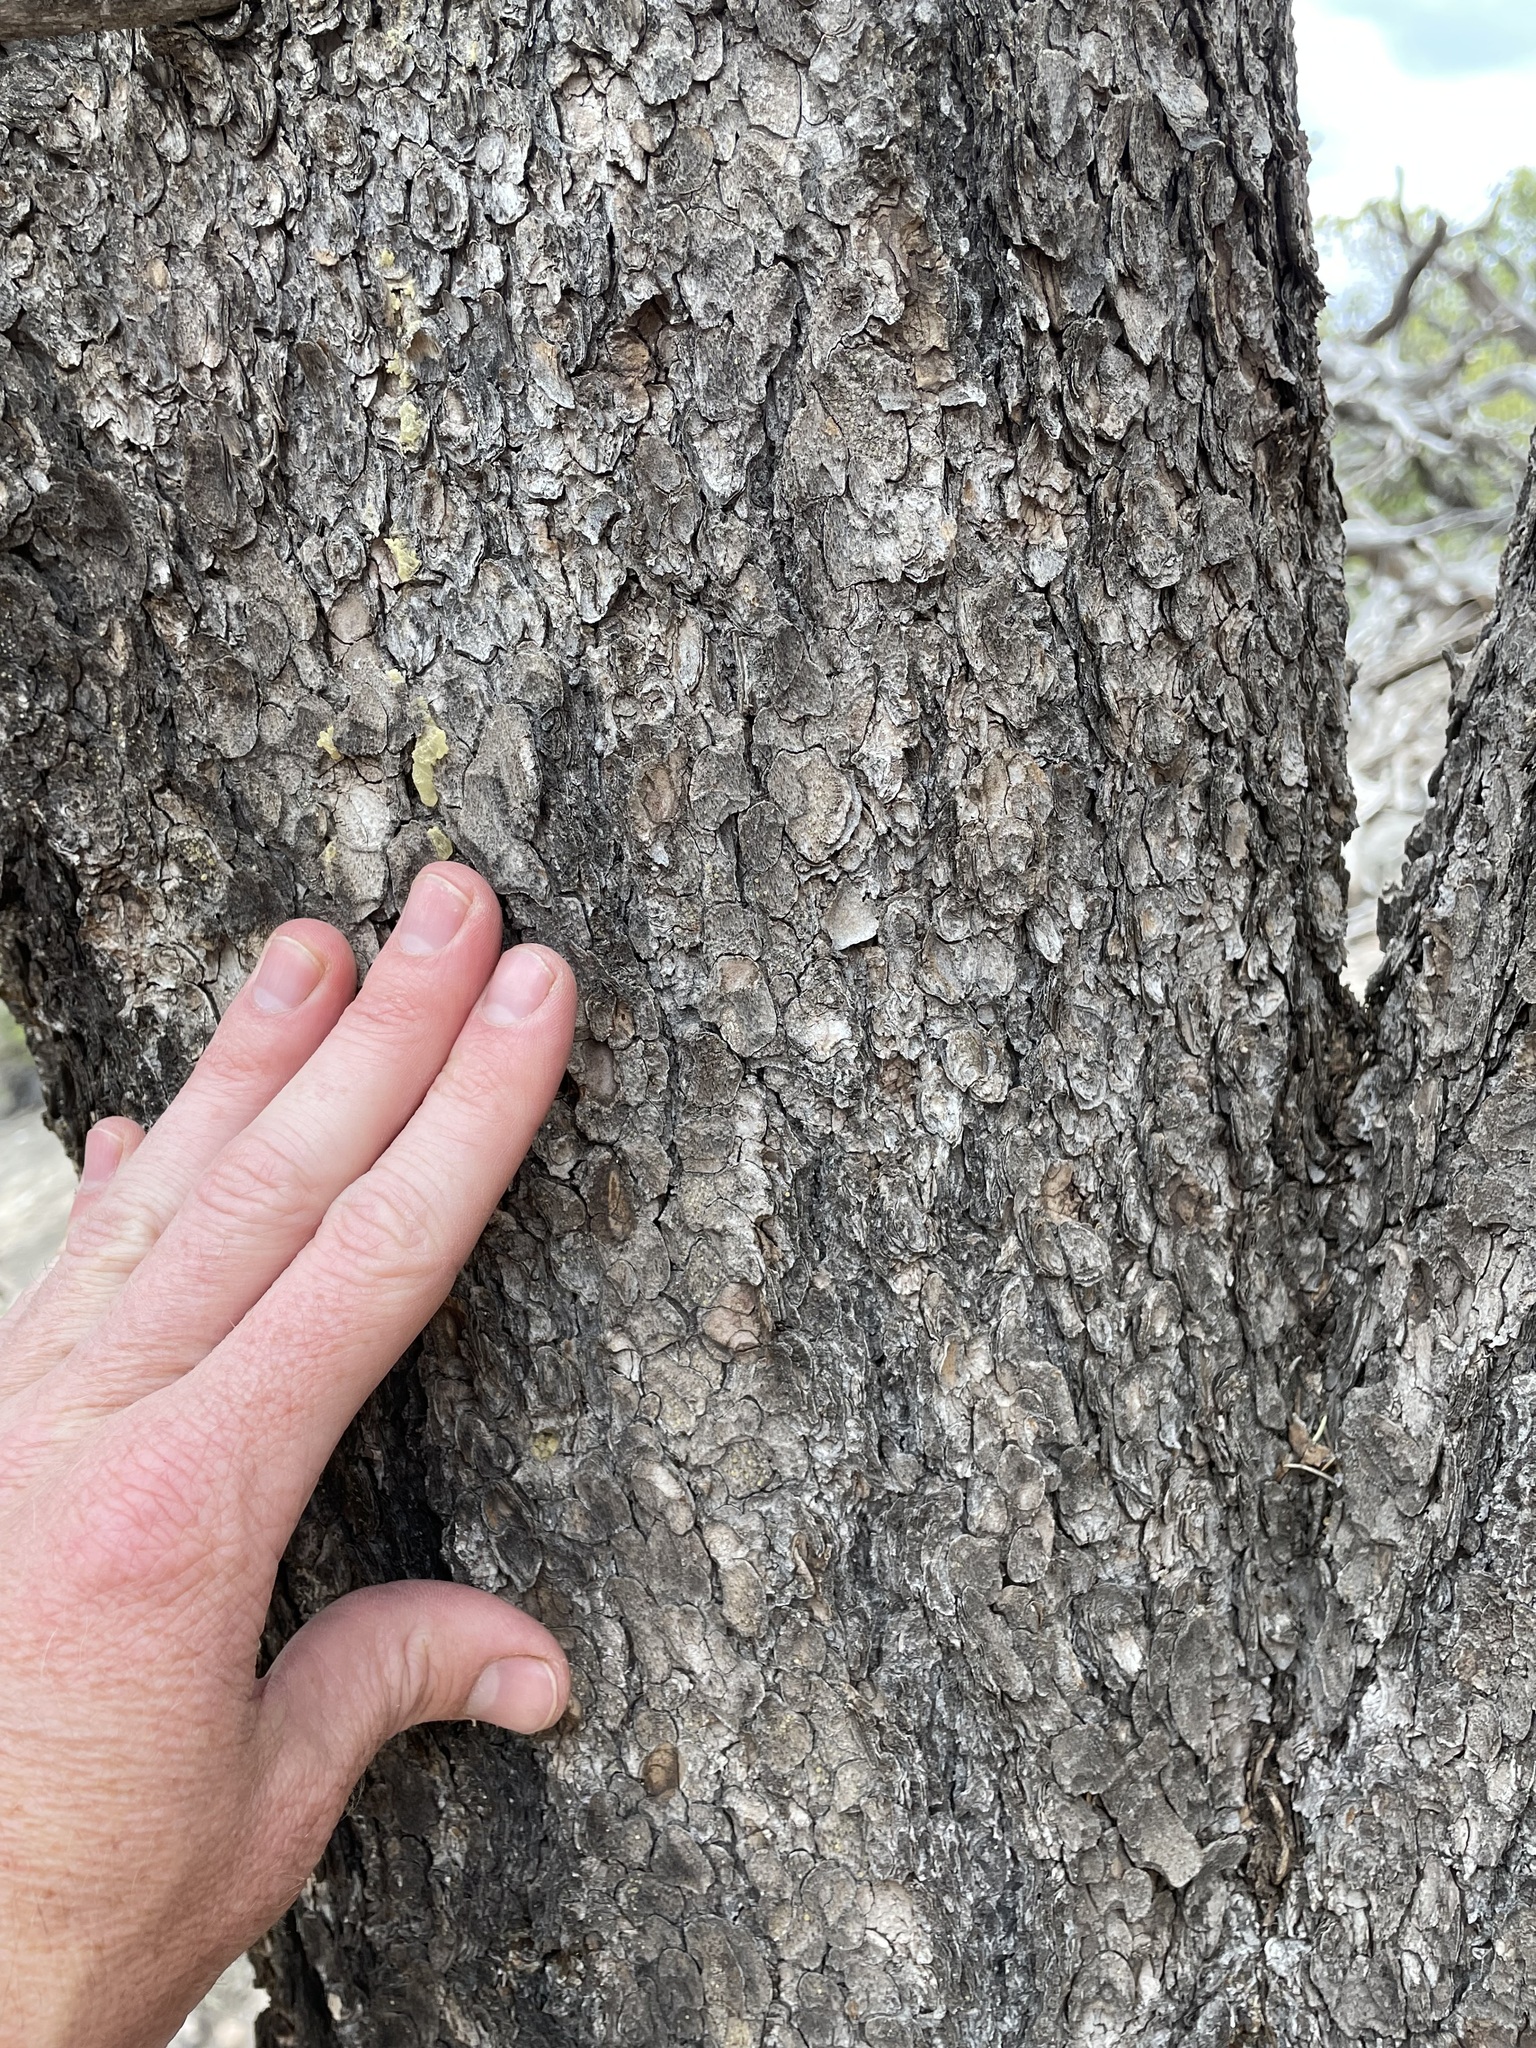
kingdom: Plantae
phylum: Tracheophyta
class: Pinopsida
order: Pinales
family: Pinaceae
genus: Pinus
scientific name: Pinus edulis
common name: Colorado pinyon
